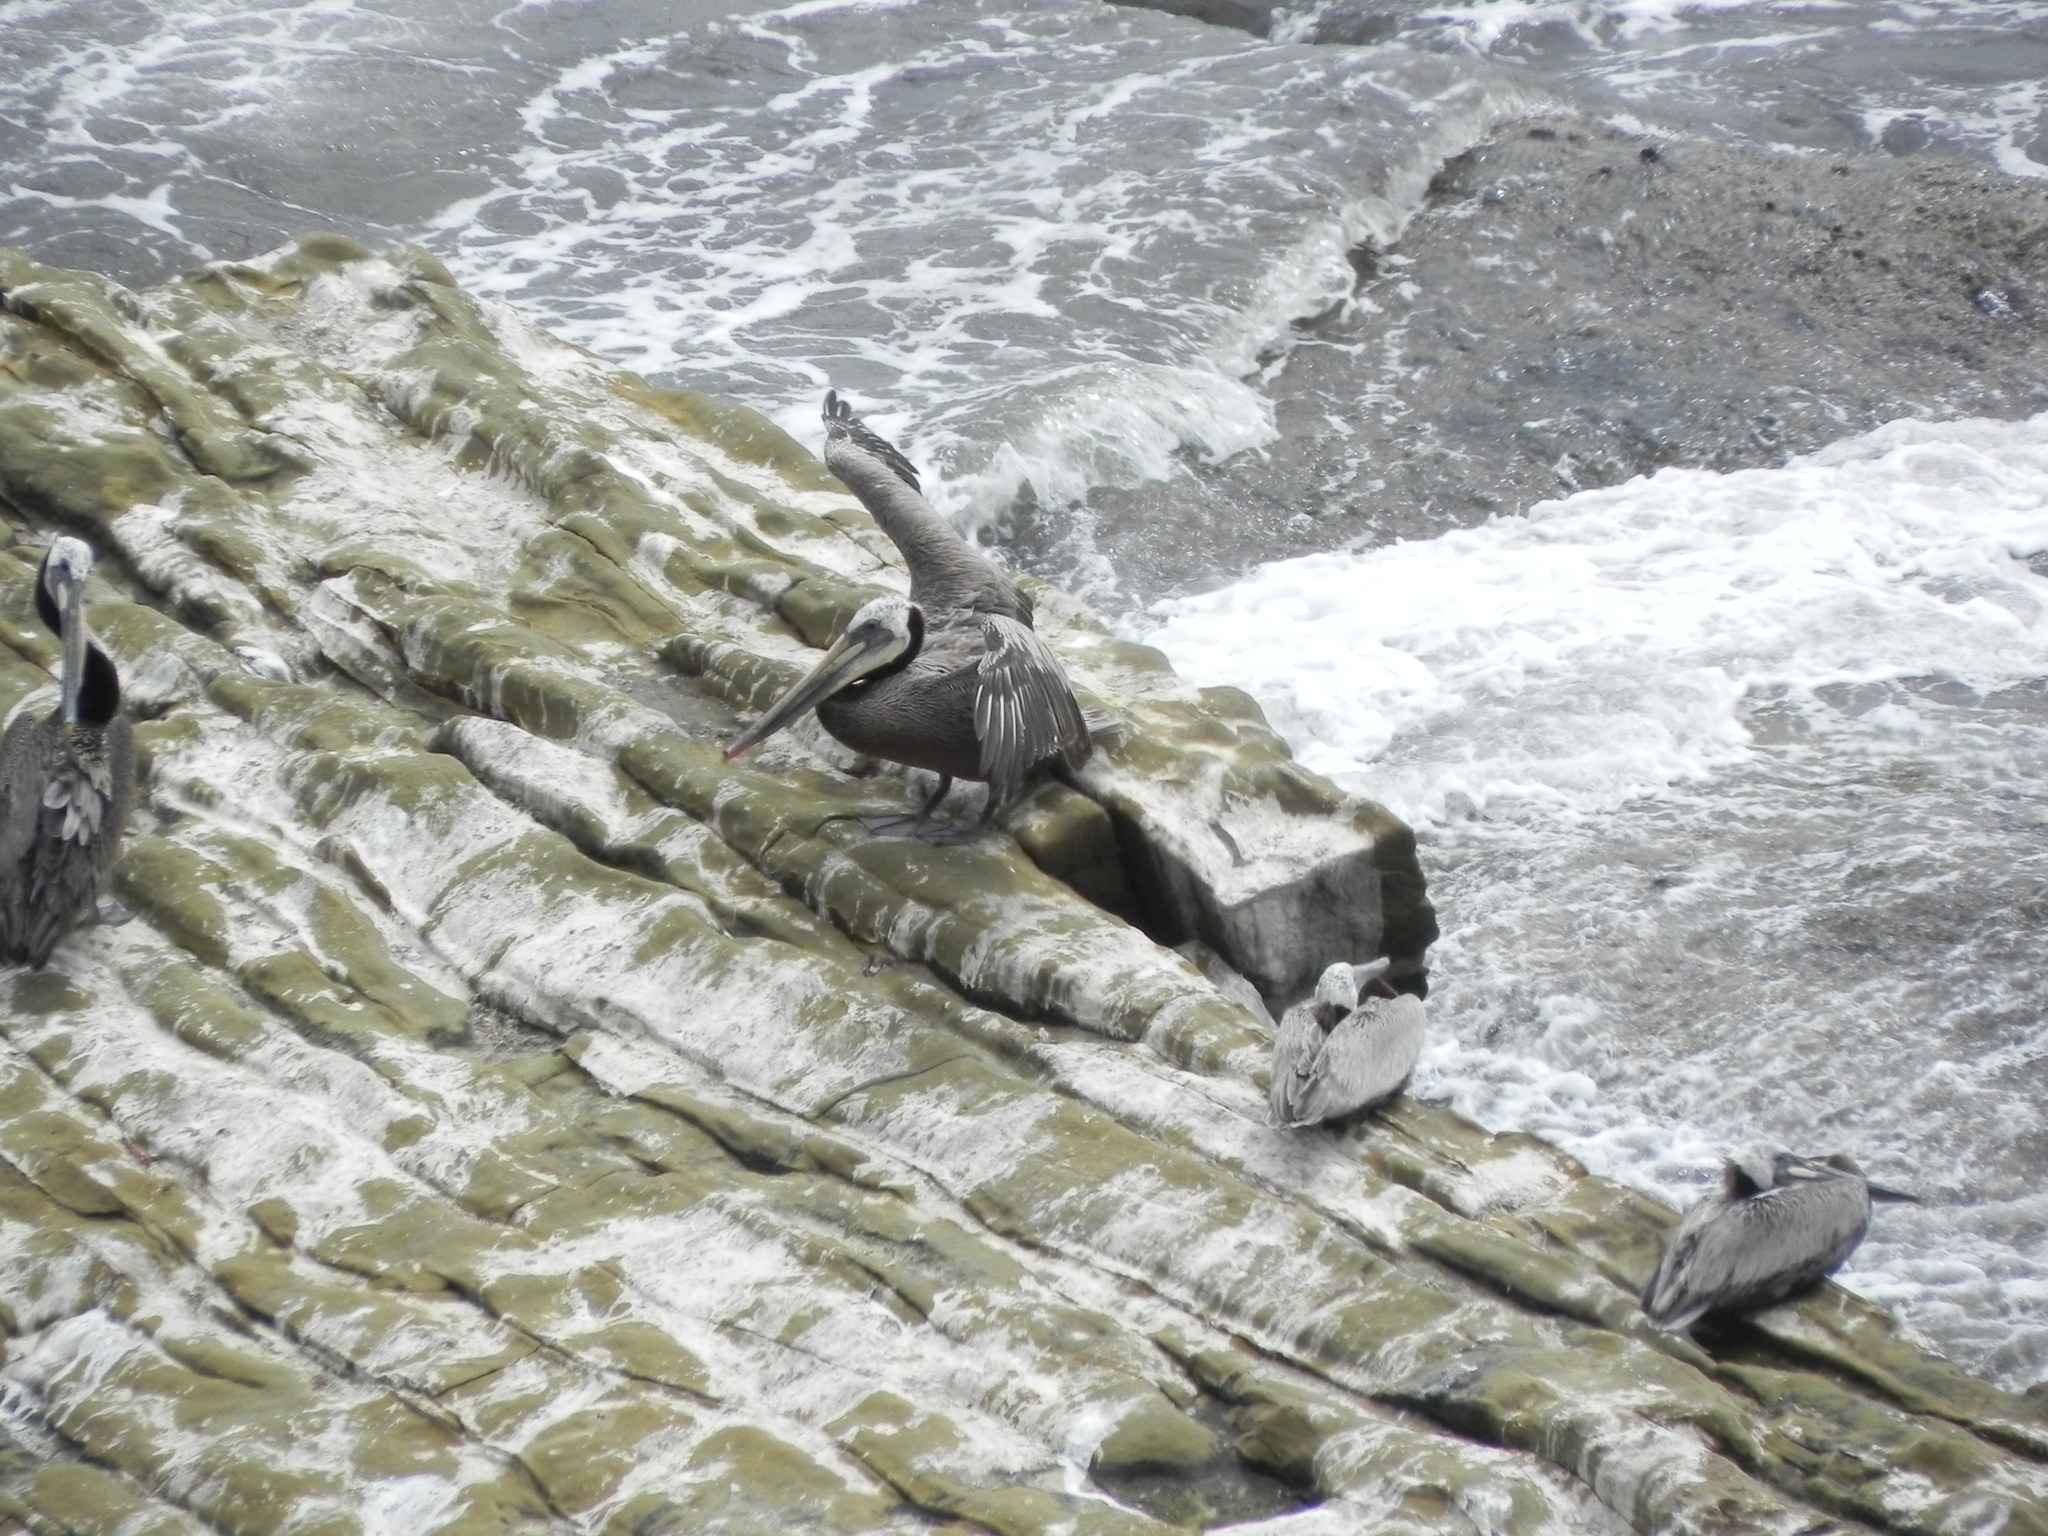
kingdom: Animalia
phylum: Chordata
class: Aves
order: Pelecaniformes
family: Pelecanidae
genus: Pelecanus
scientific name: Pelecanus occidentalis
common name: Brown pelican
